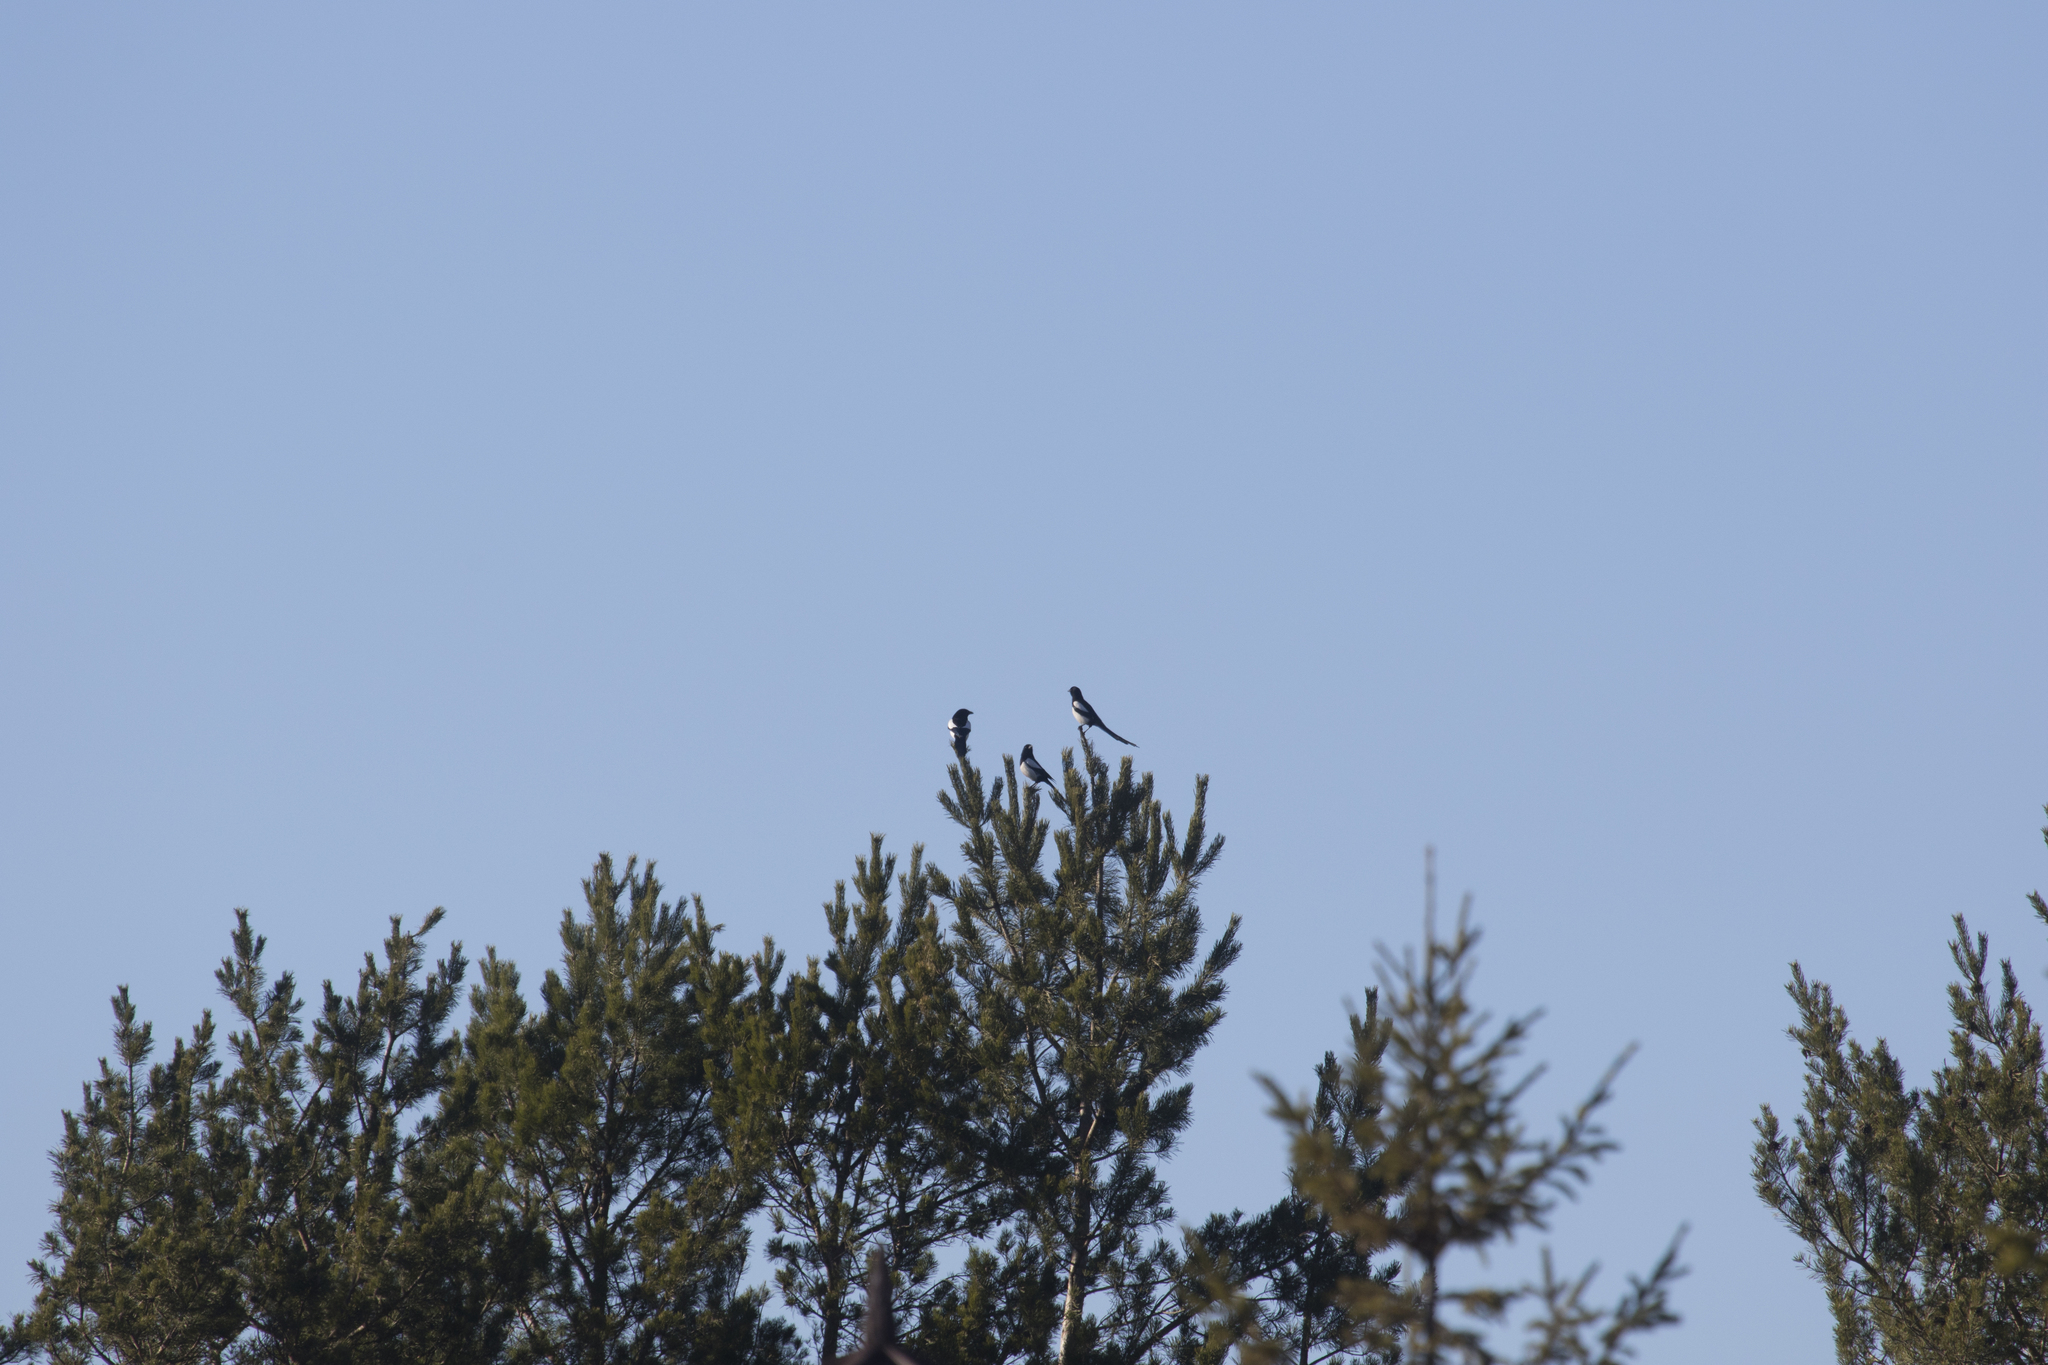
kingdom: Animalia
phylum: Chordata
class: Aves
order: Passeriformes
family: Corvidae
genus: Pica
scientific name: Pica pica
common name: Eurasian magpie
